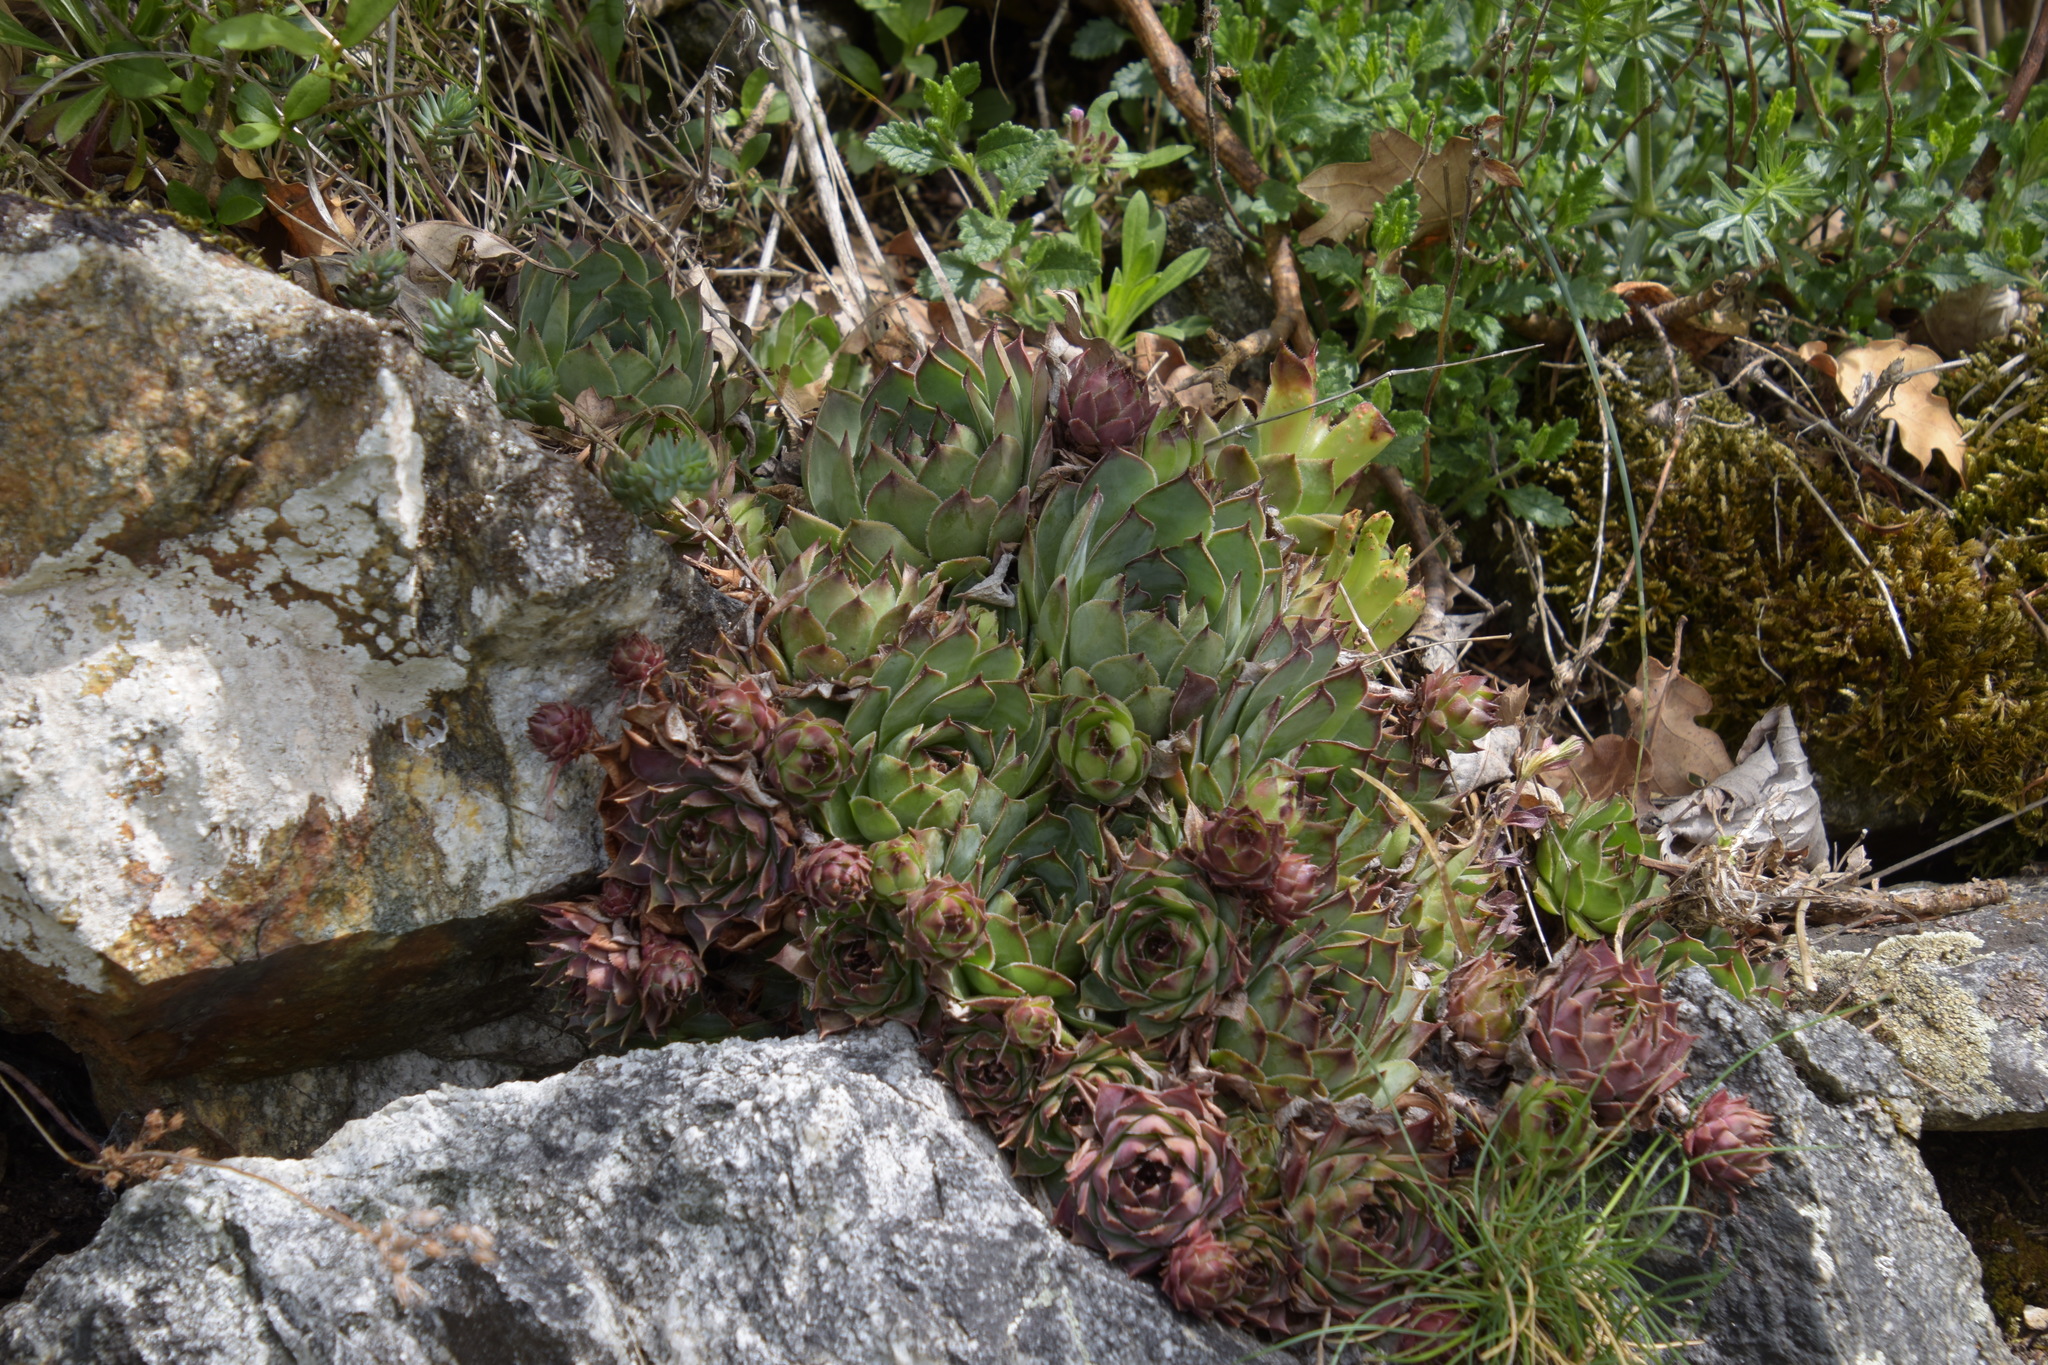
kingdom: Plantae
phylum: Tracheophyta
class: Magnoliopsida
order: Saxifragales
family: Crassulaceae
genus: Sempervivum
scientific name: Sempervivum tectorum
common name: House-leek
